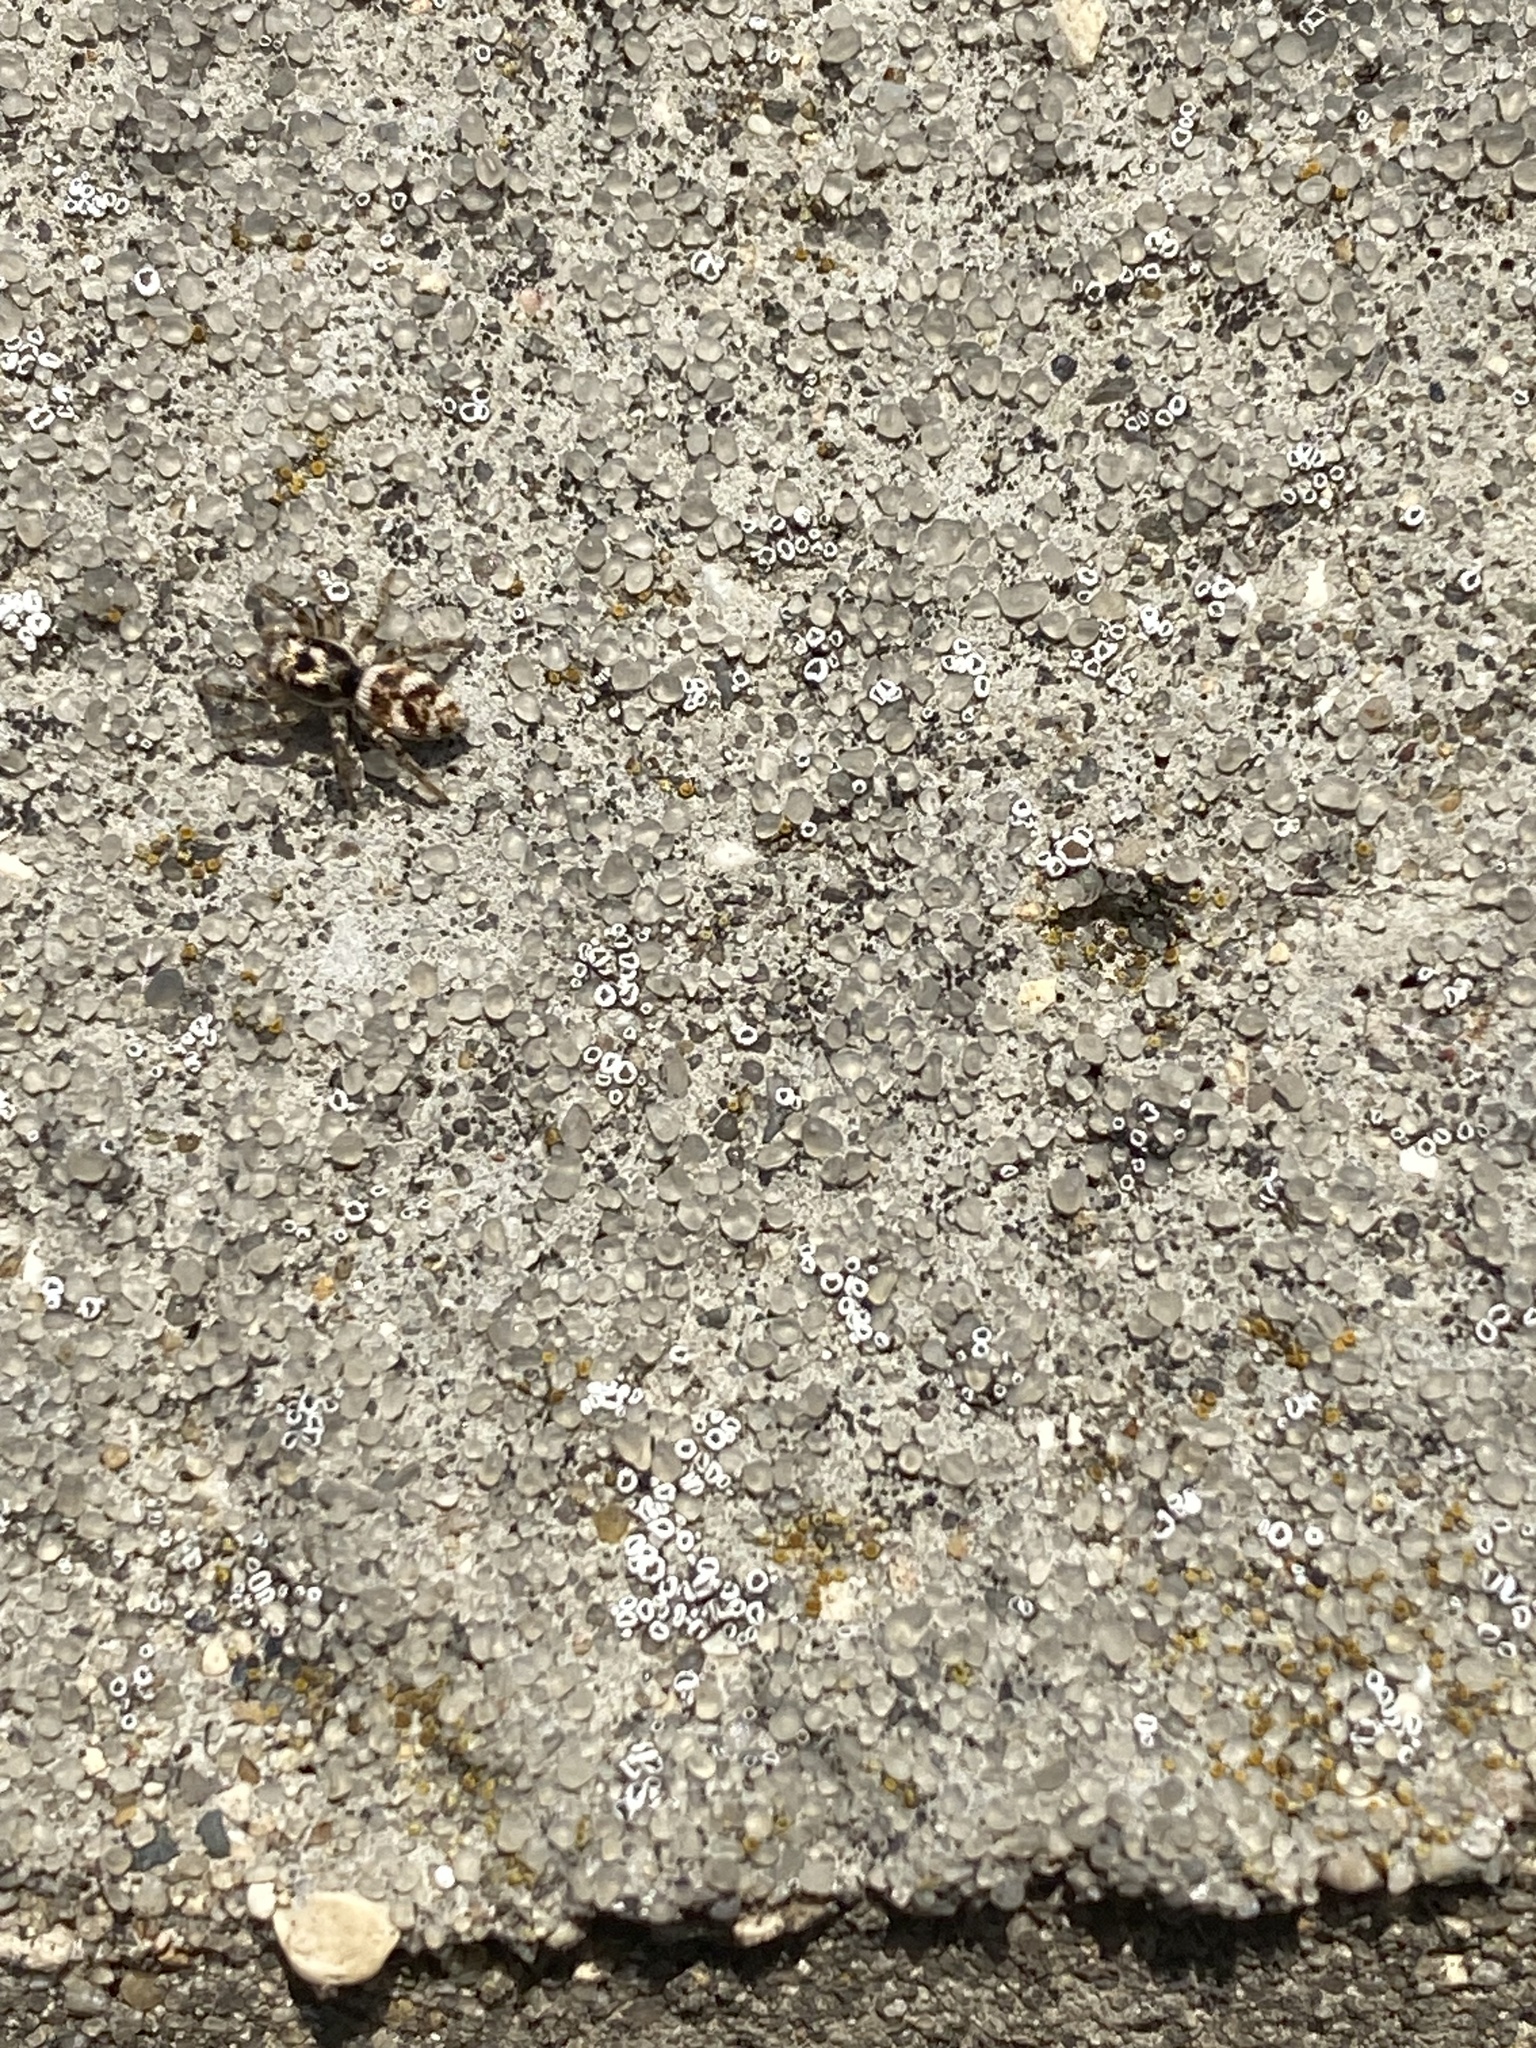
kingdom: Animalia
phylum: Arthropoda
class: Arachnida
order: Araneae
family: Salticidae
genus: Salticus
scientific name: Salticus scenicus
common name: Zebra jumper
